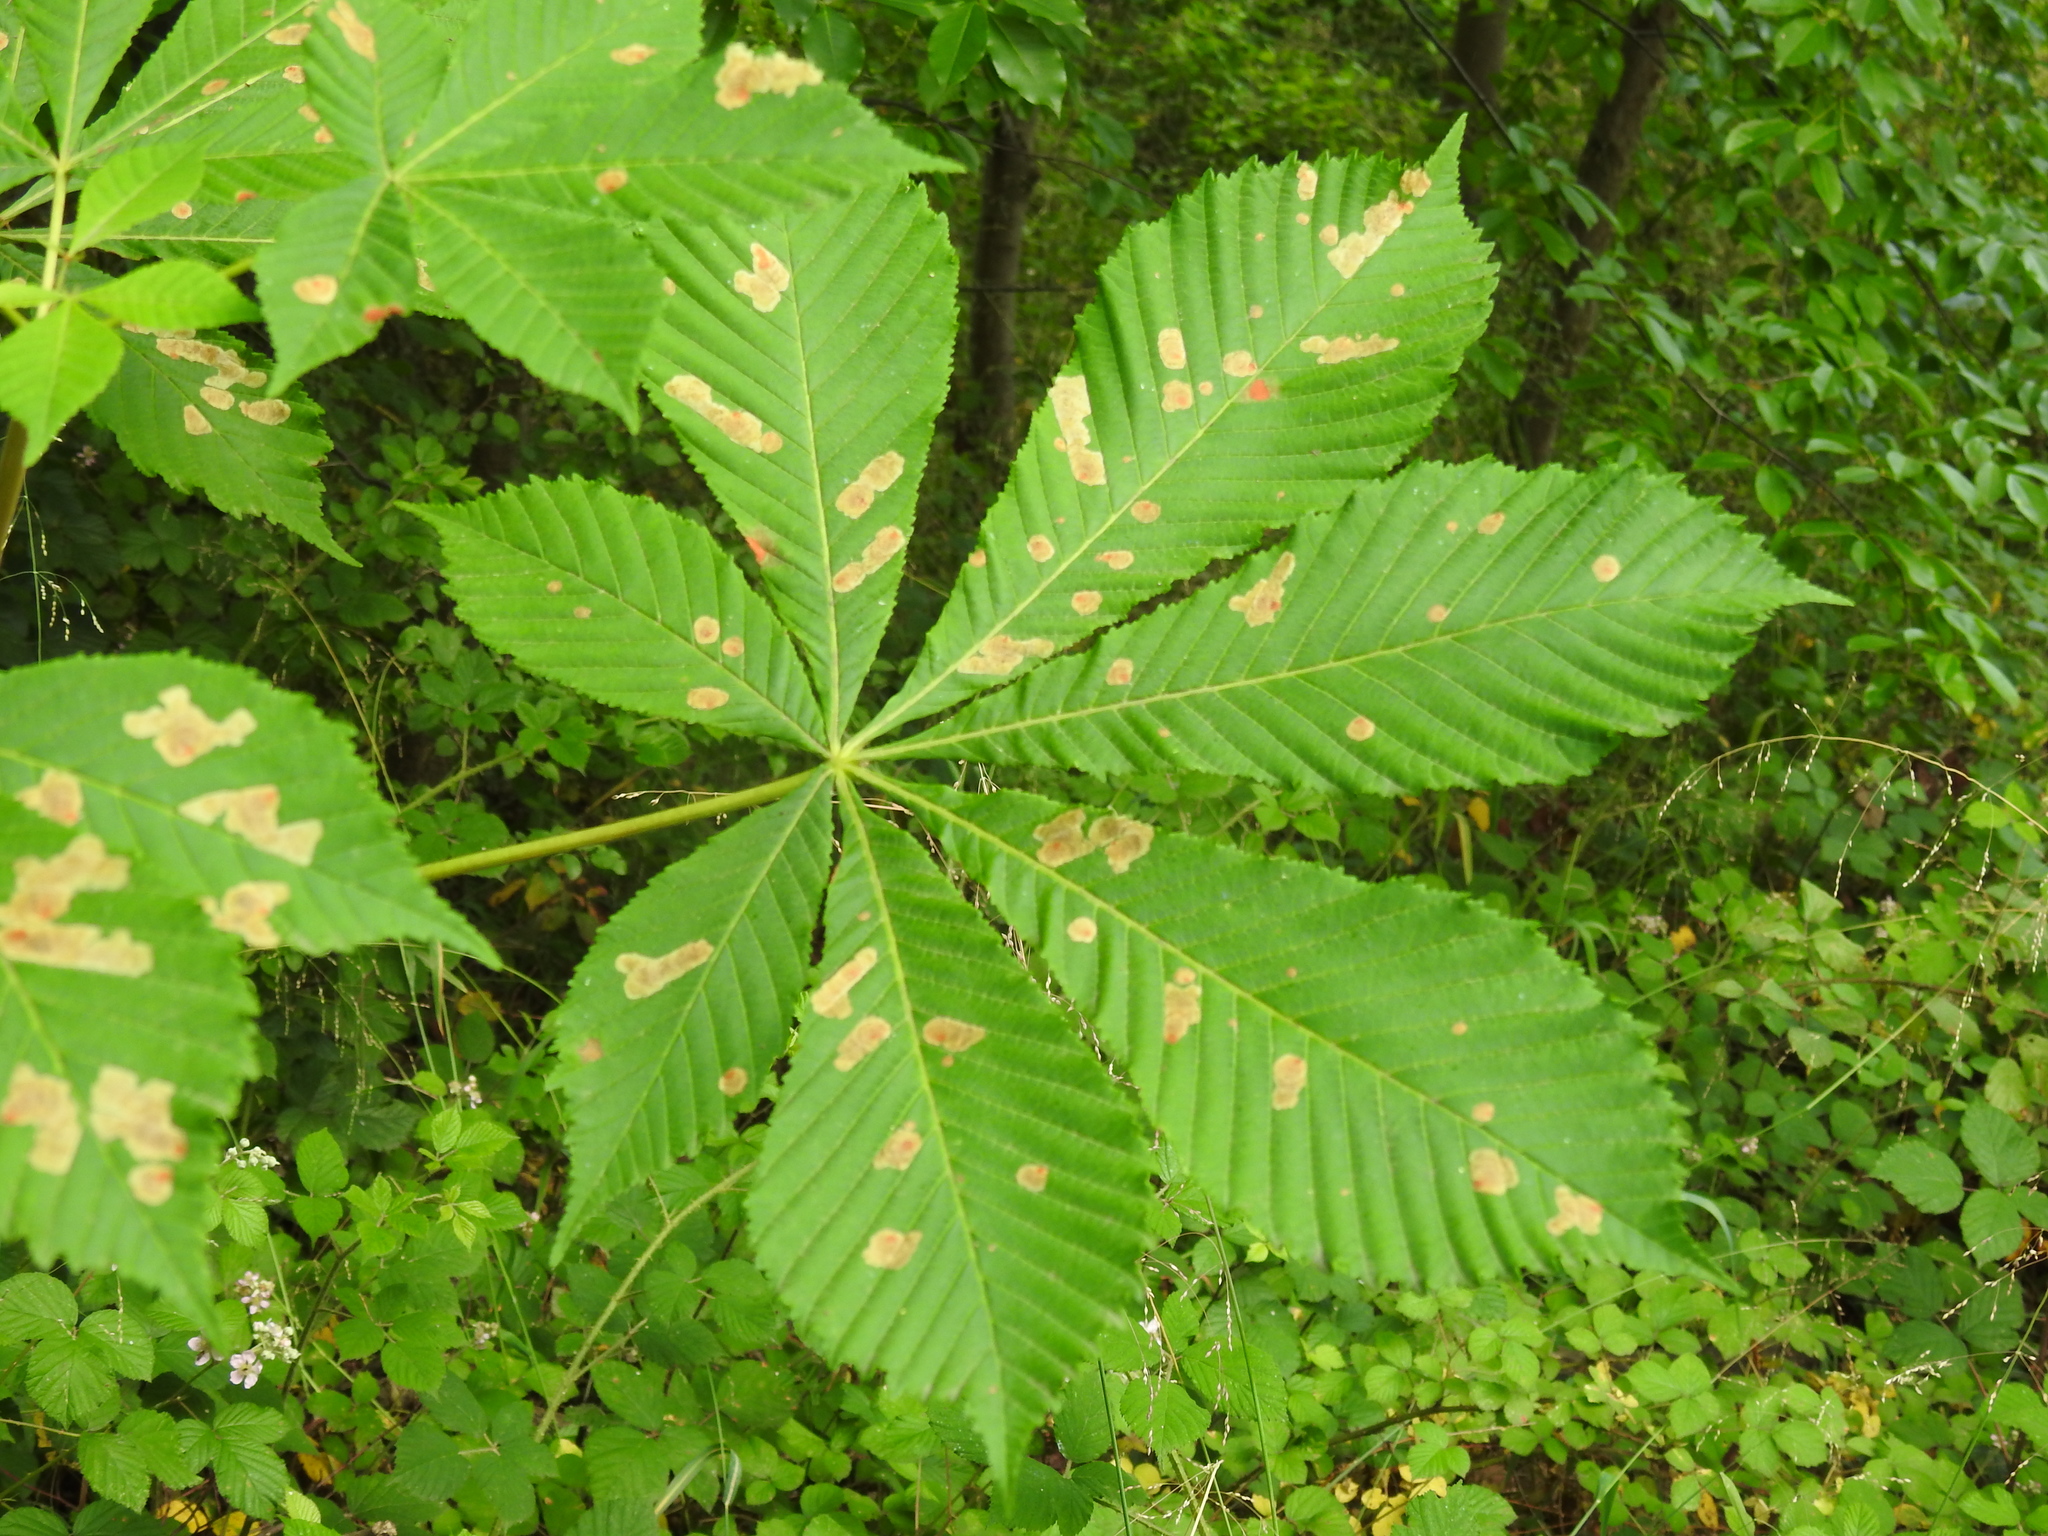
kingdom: Animalia
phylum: Arthropoda
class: Insecta
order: Lepidoptera
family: Gracillariidae
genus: Cameraria
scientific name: Cameraria ohridella
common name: Horse-chestnut leaf-miner
